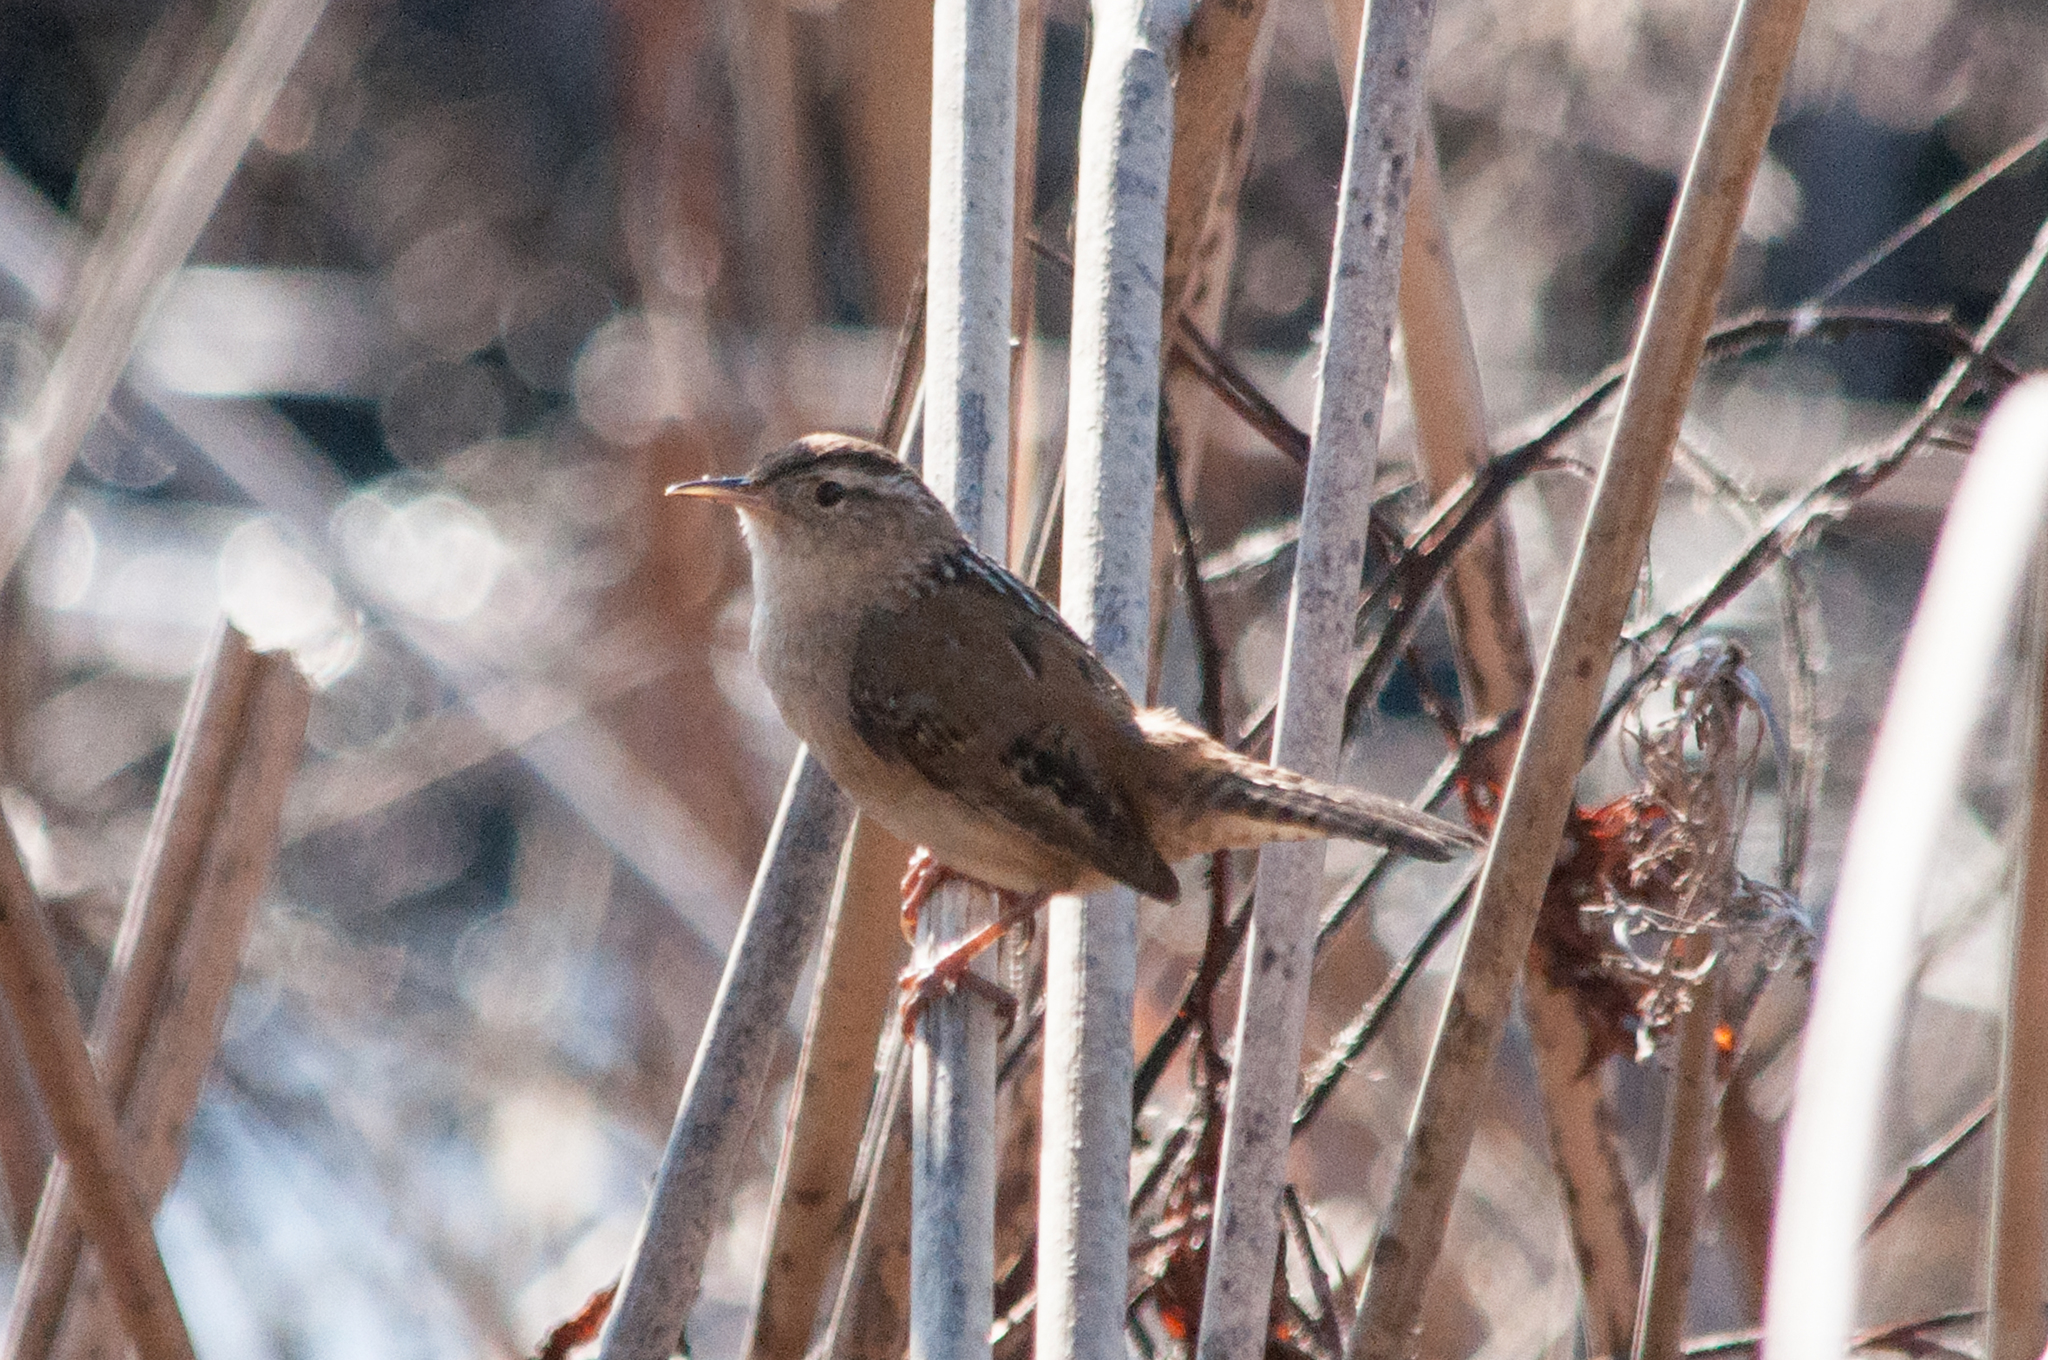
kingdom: Animalia
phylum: Chordata
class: Aves
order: Passeriformes
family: Troglodytidae
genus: Cistothorus
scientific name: Cistothorus palustris
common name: Marsh wren
